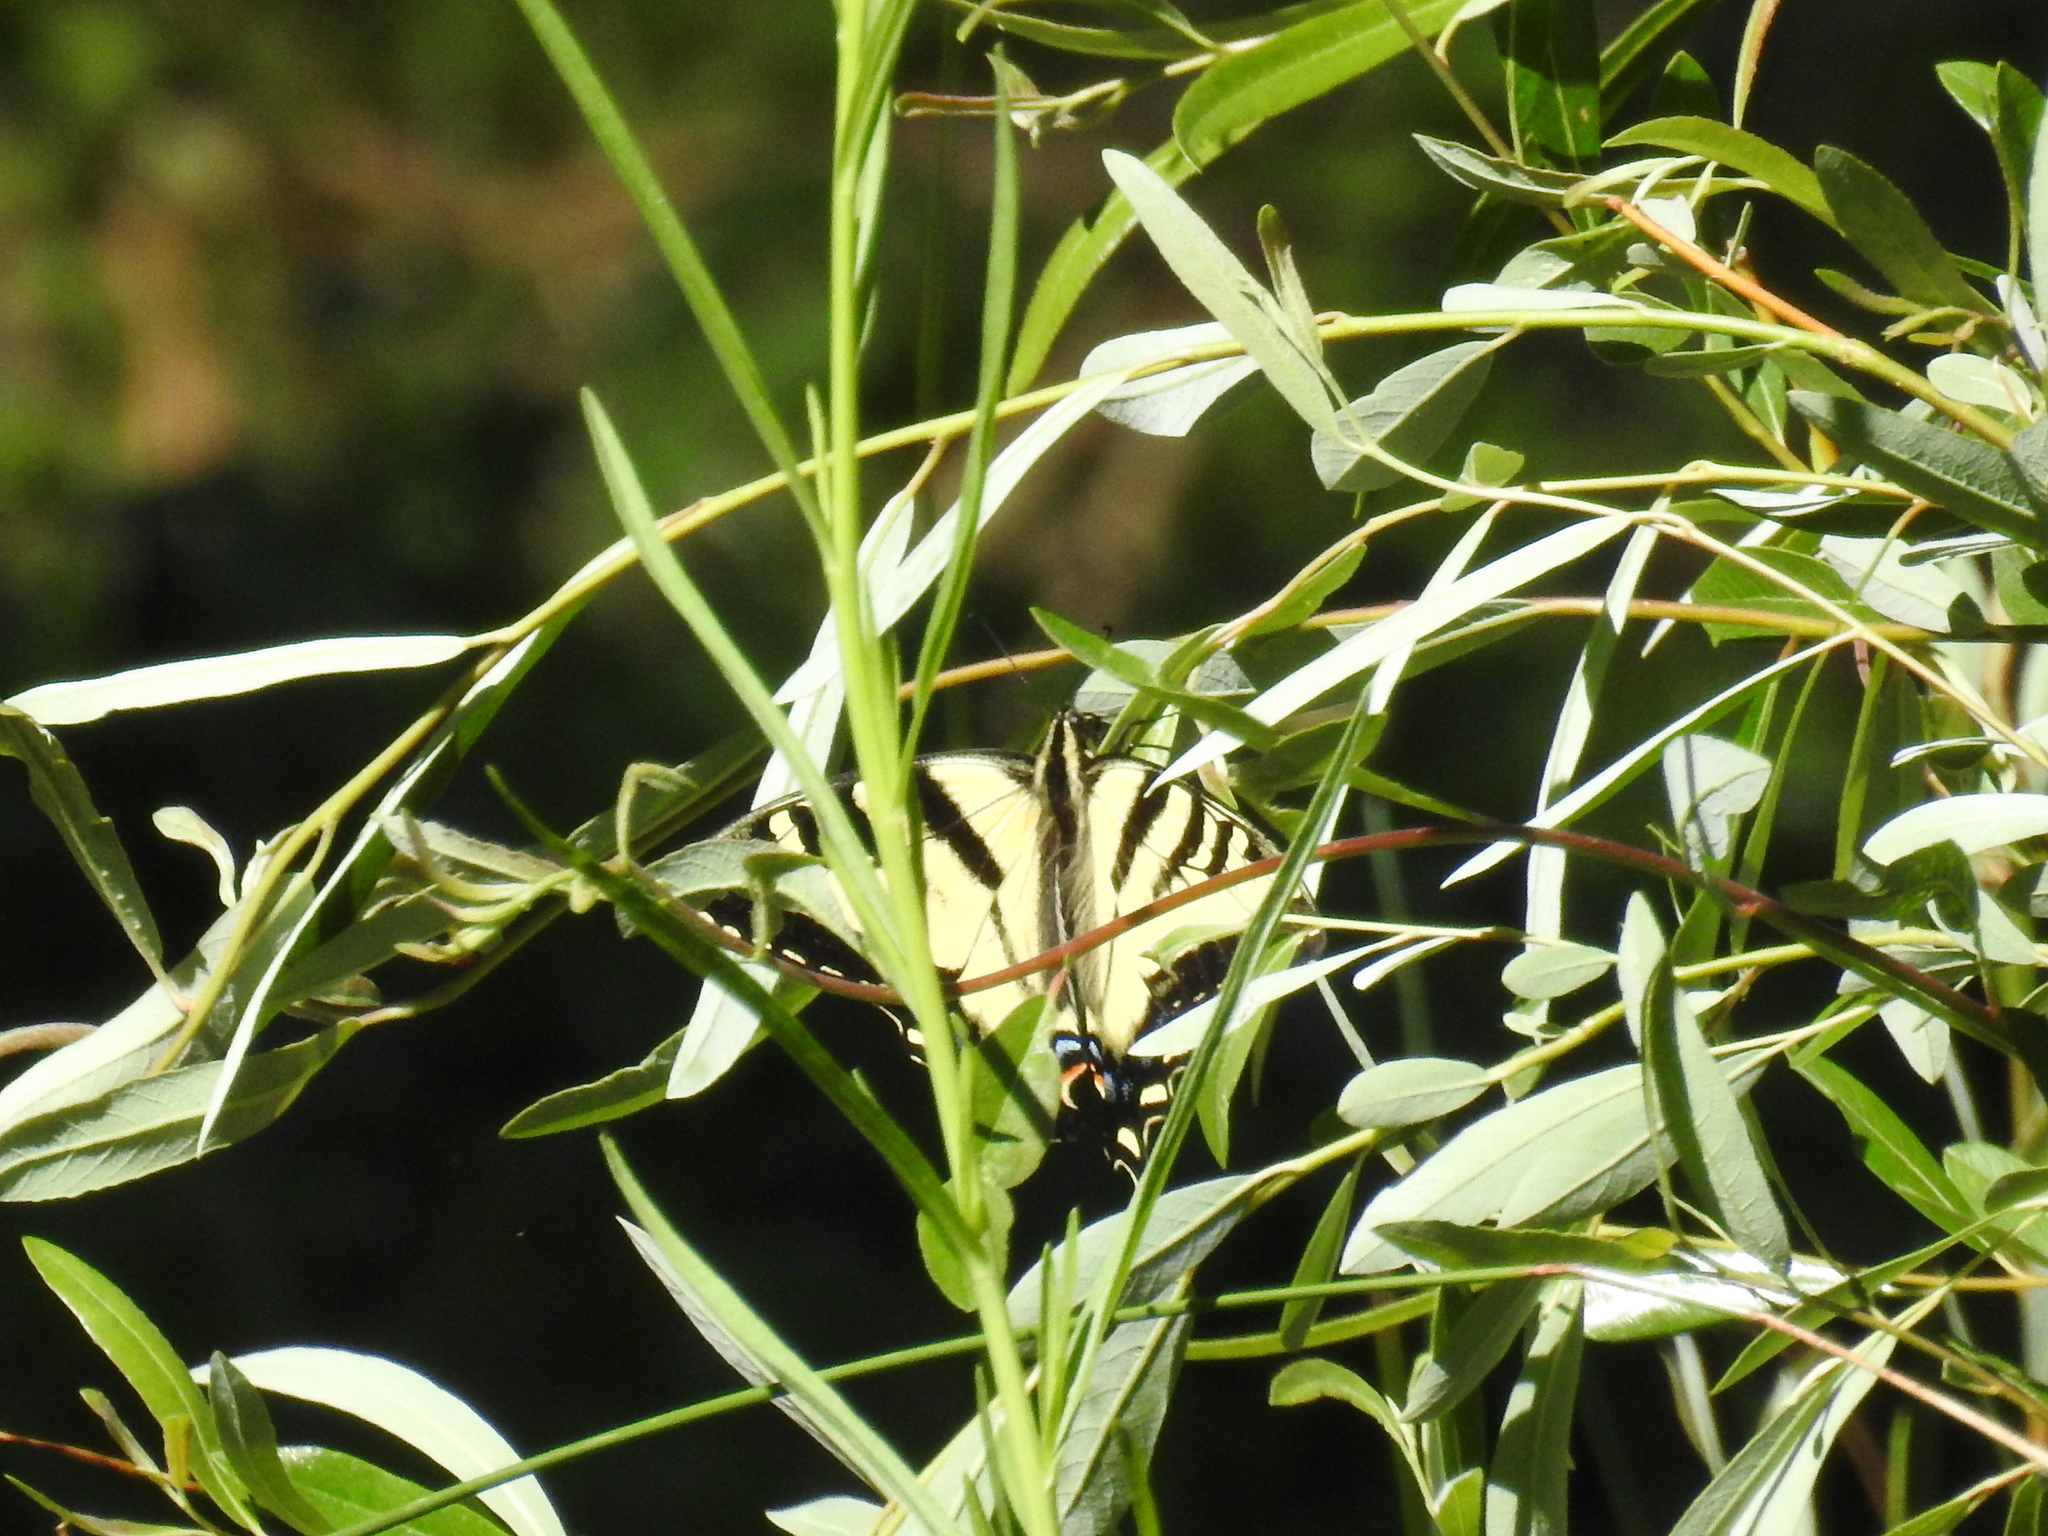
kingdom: Animalia
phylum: Arthropoda
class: Insecta
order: Lepidoptera
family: Papilionidae
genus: Papilio
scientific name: Papilio rutulus
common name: Western tiger swallowtail
